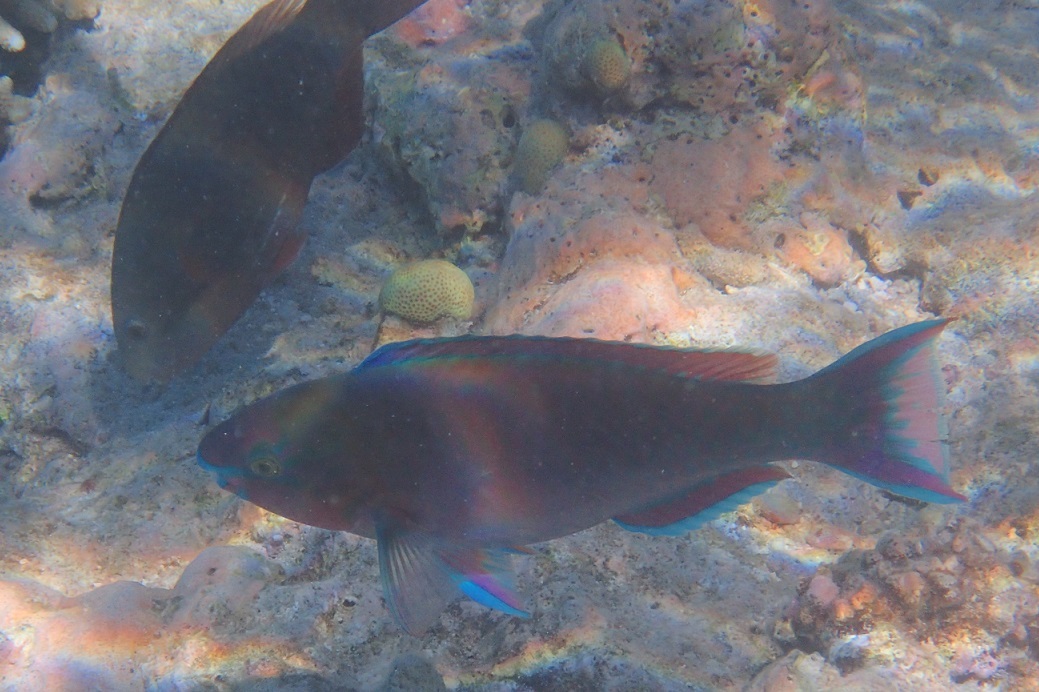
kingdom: Animalia
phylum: Chordata
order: Perciformes
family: Scaridae
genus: Scarus
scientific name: Scarus psittacus
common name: Palenose parrotfish
